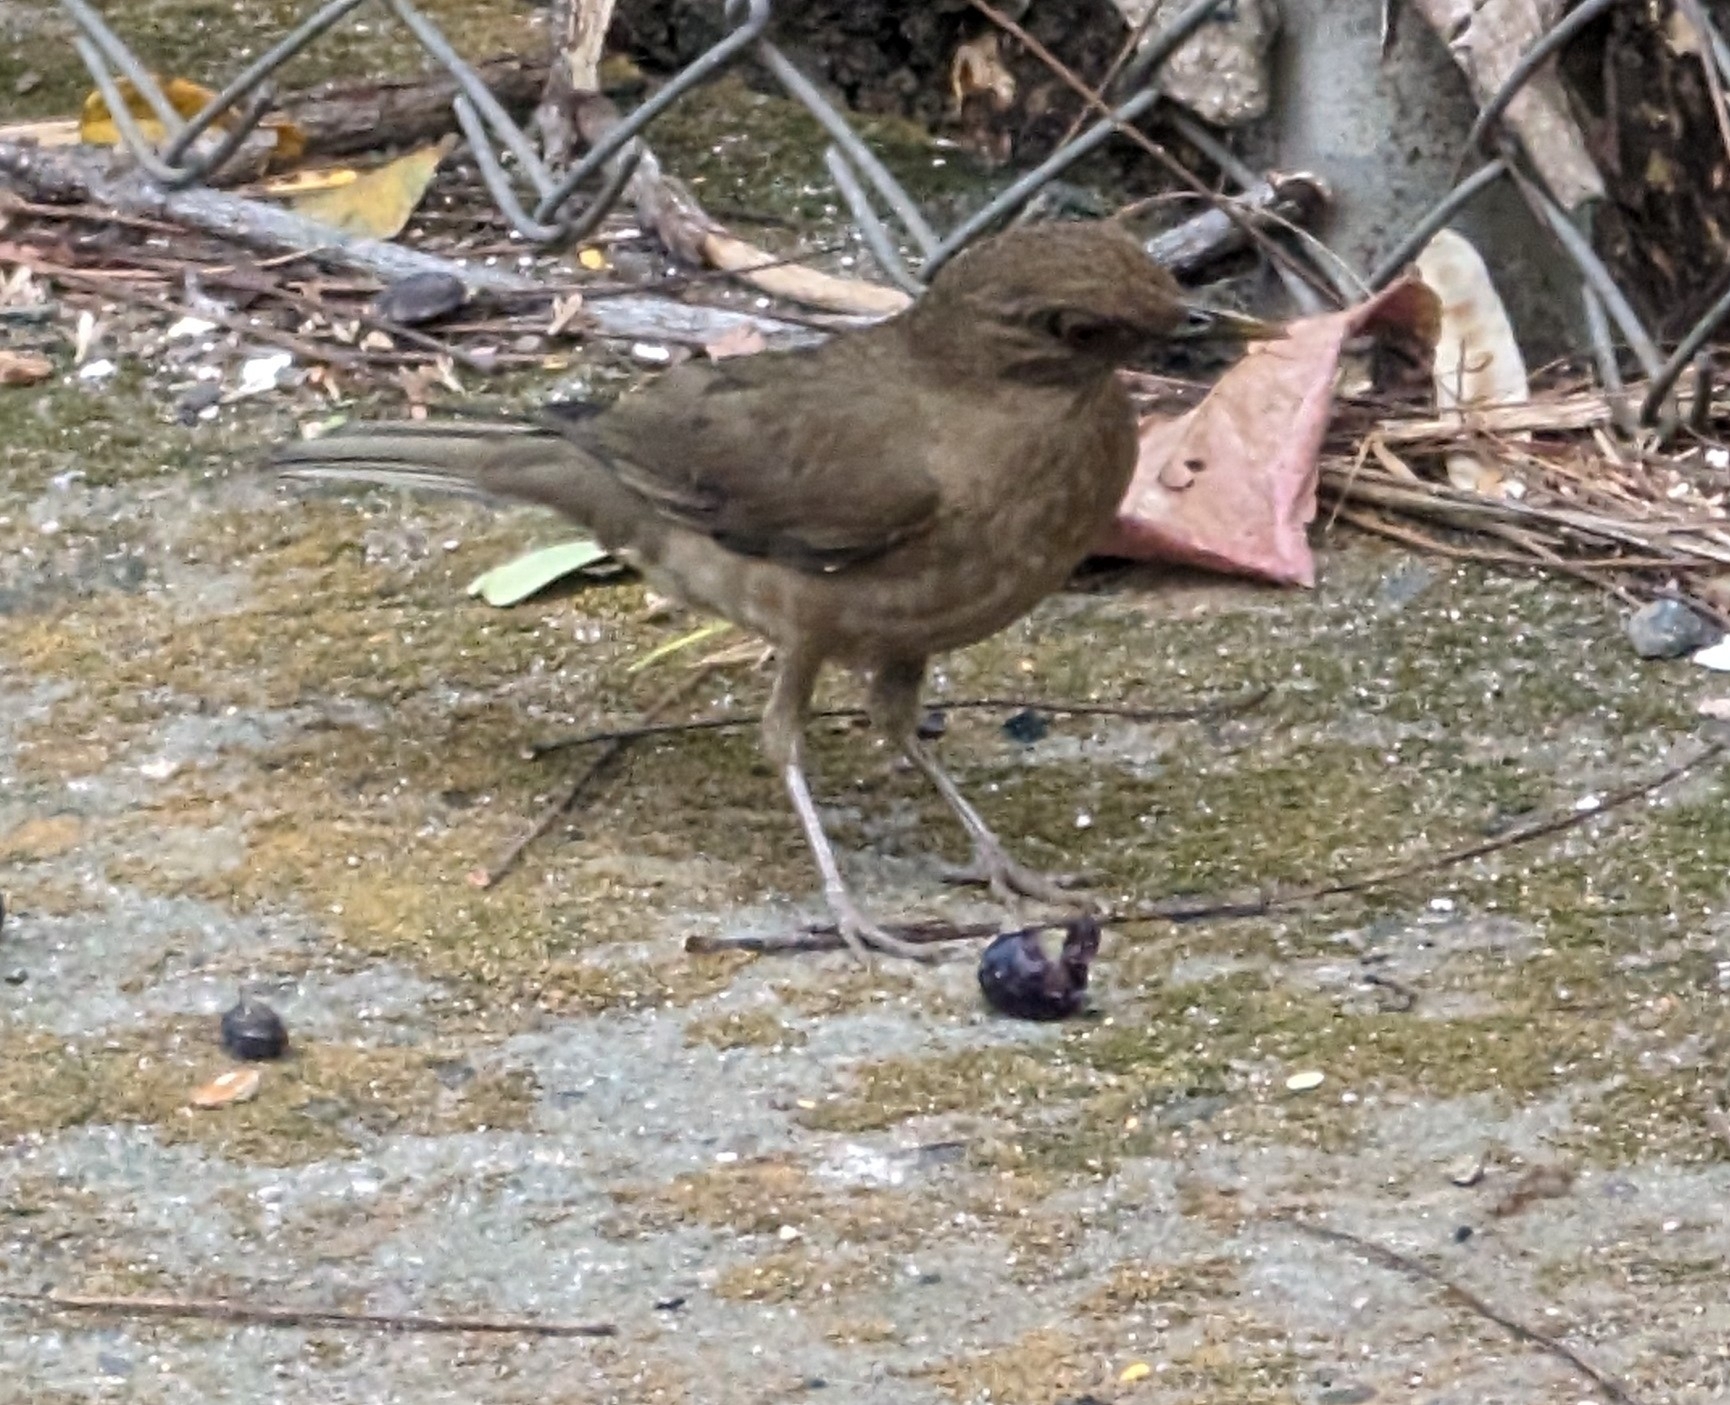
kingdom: Animalia
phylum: Chordata
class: Aves
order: Passeriformes
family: Turdidae
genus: Turdus
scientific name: Turdus grayi
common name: Clay-colored thrush
